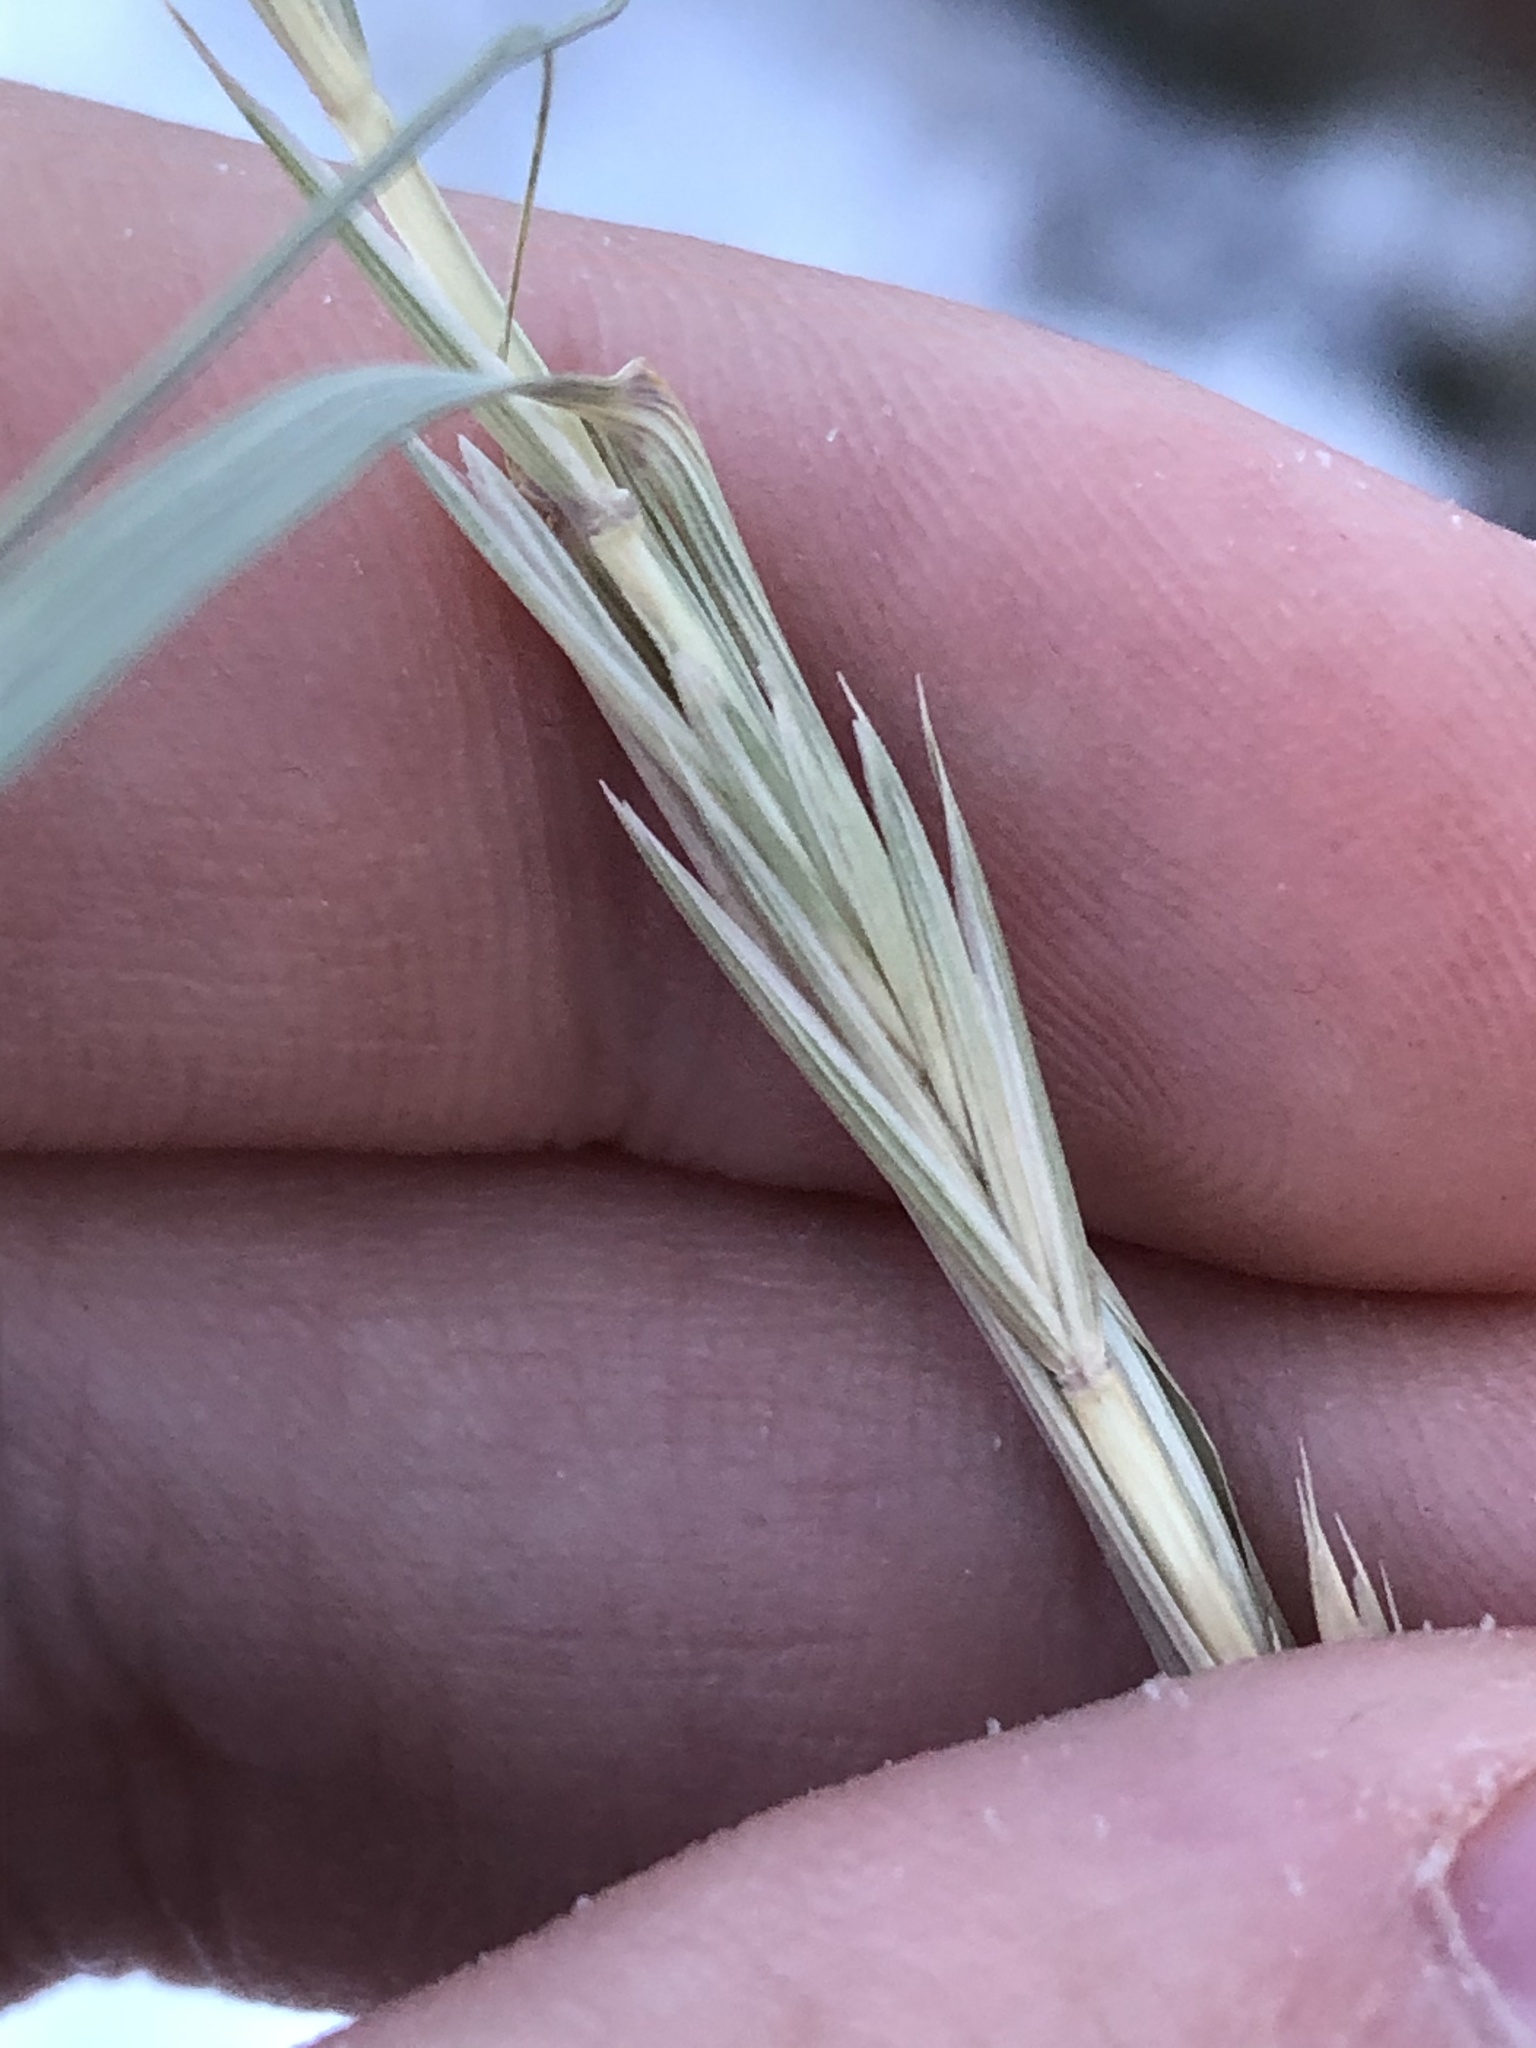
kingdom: Plantae
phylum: Tracheophyta
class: Liliopsida
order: Poales
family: Poaceae
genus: Thinopyrum
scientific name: Thinopyrum intermedium
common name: Intermediate wheatgrass
